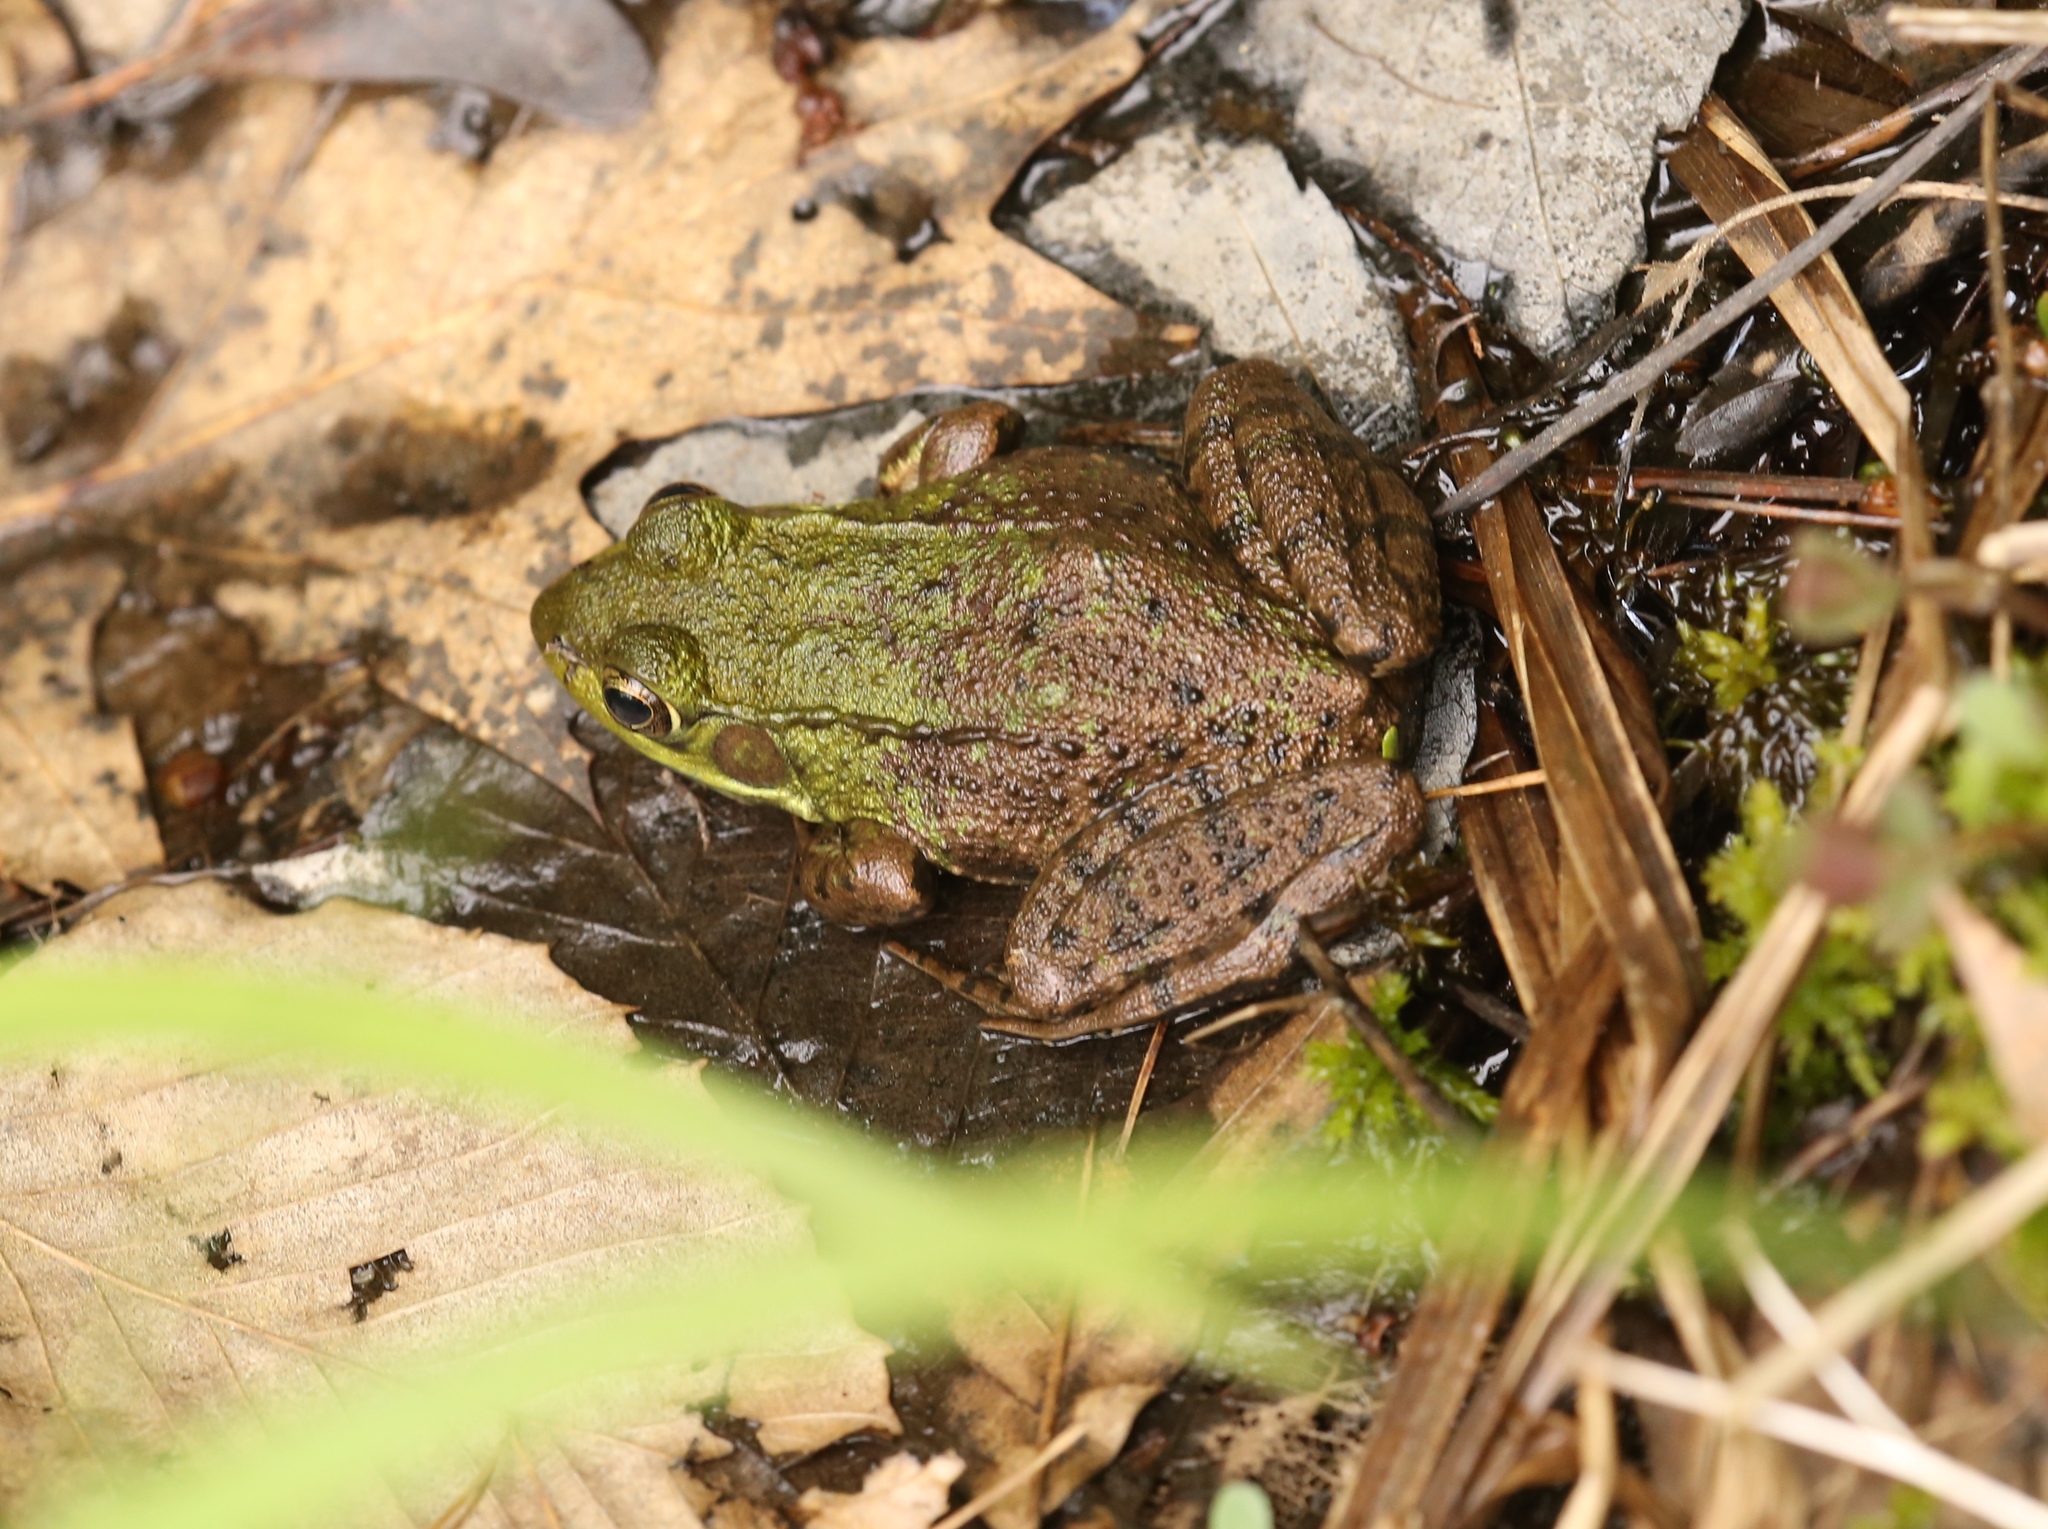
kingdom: Animalia
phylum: Chordata
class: Amphibia
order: Anura
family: Ranidae
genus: Lithobates
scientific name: Lithobates clamitans
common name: Green frog
